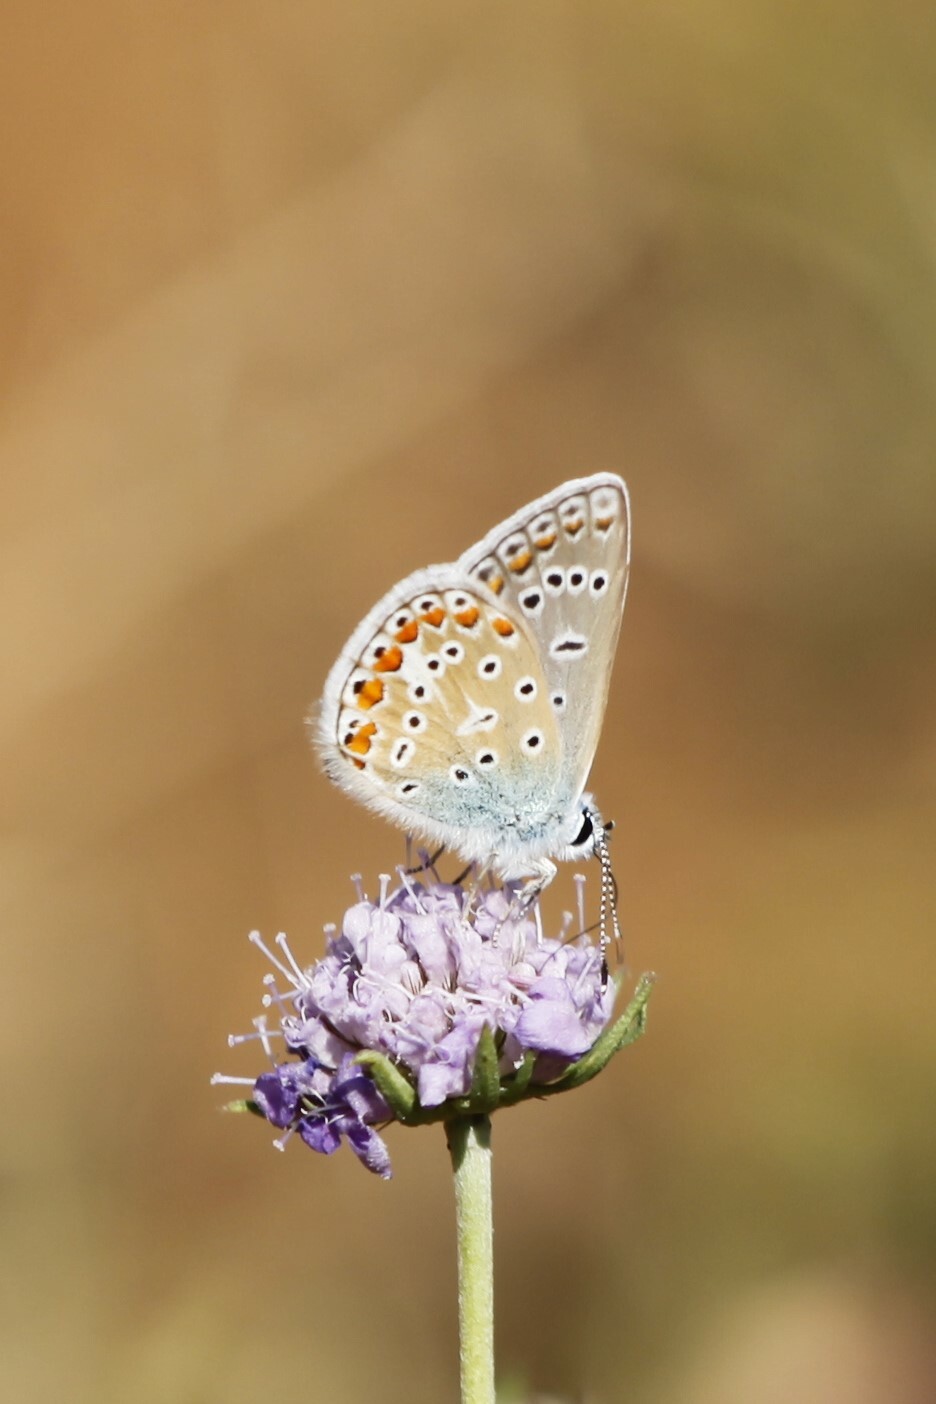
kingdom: Animalia
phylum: Arthropoda
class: Insecta
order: Lepidoptera
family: Lycaenidae
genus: Polyommatus
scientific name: Polyommatus icarus
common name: Common blue
